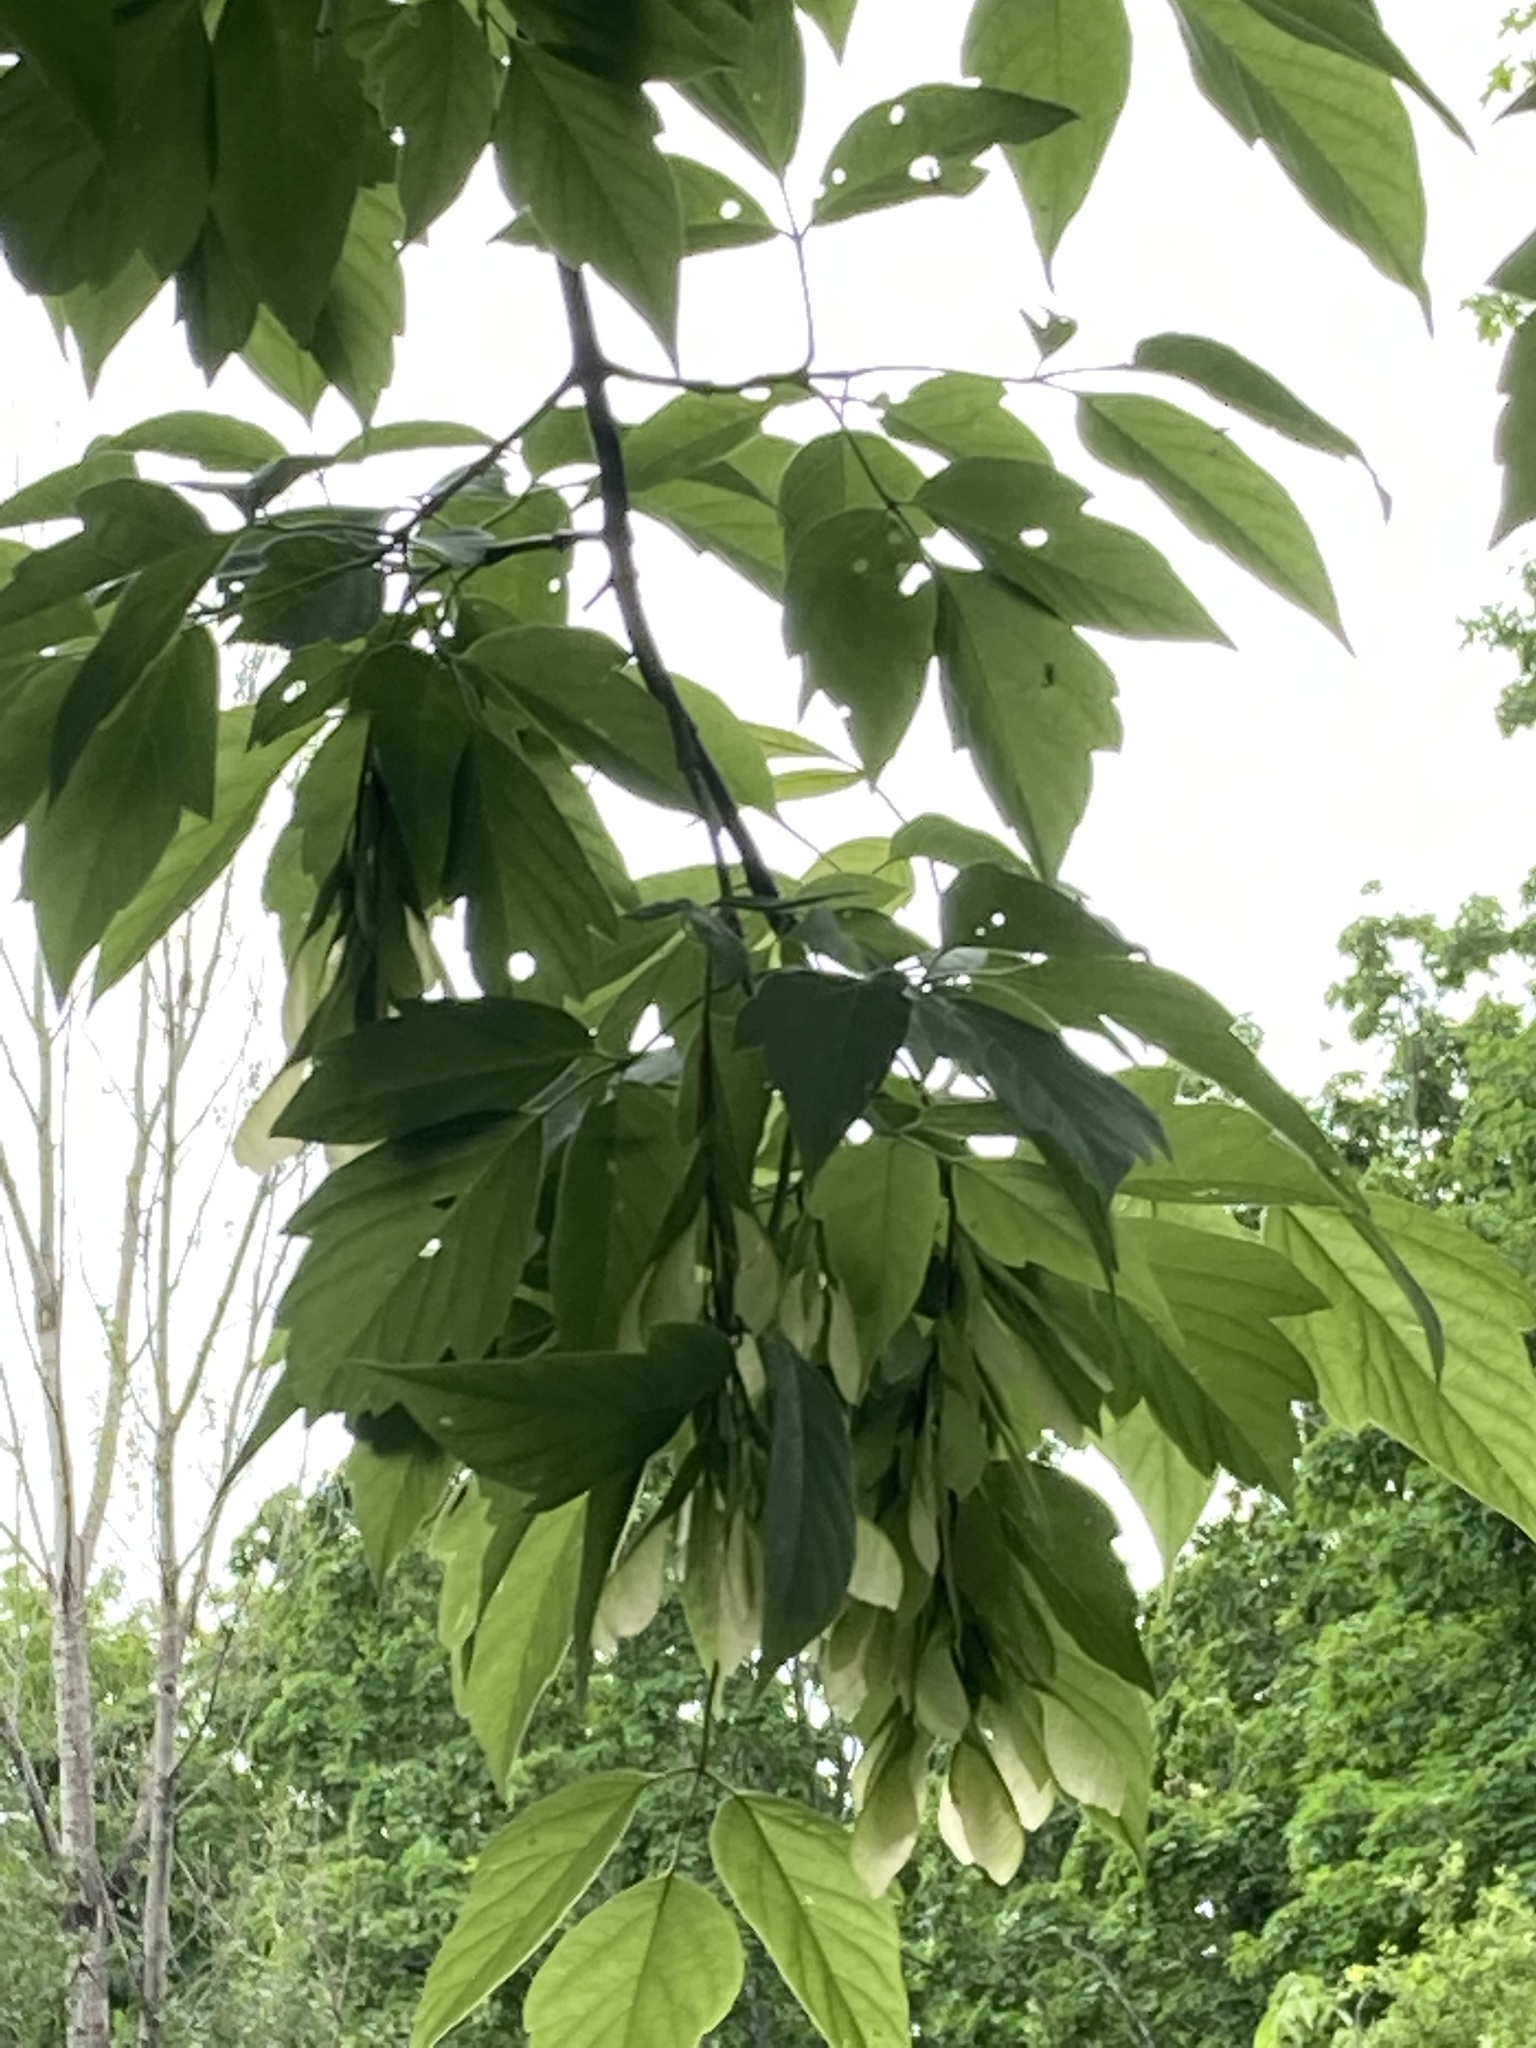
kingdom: Plantae
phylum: Tracheophyta
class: Magnoliopsida
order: Sapindales
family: Sapindaceae
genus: Acer
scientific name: Acer negundo
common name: Ashleaf maple
